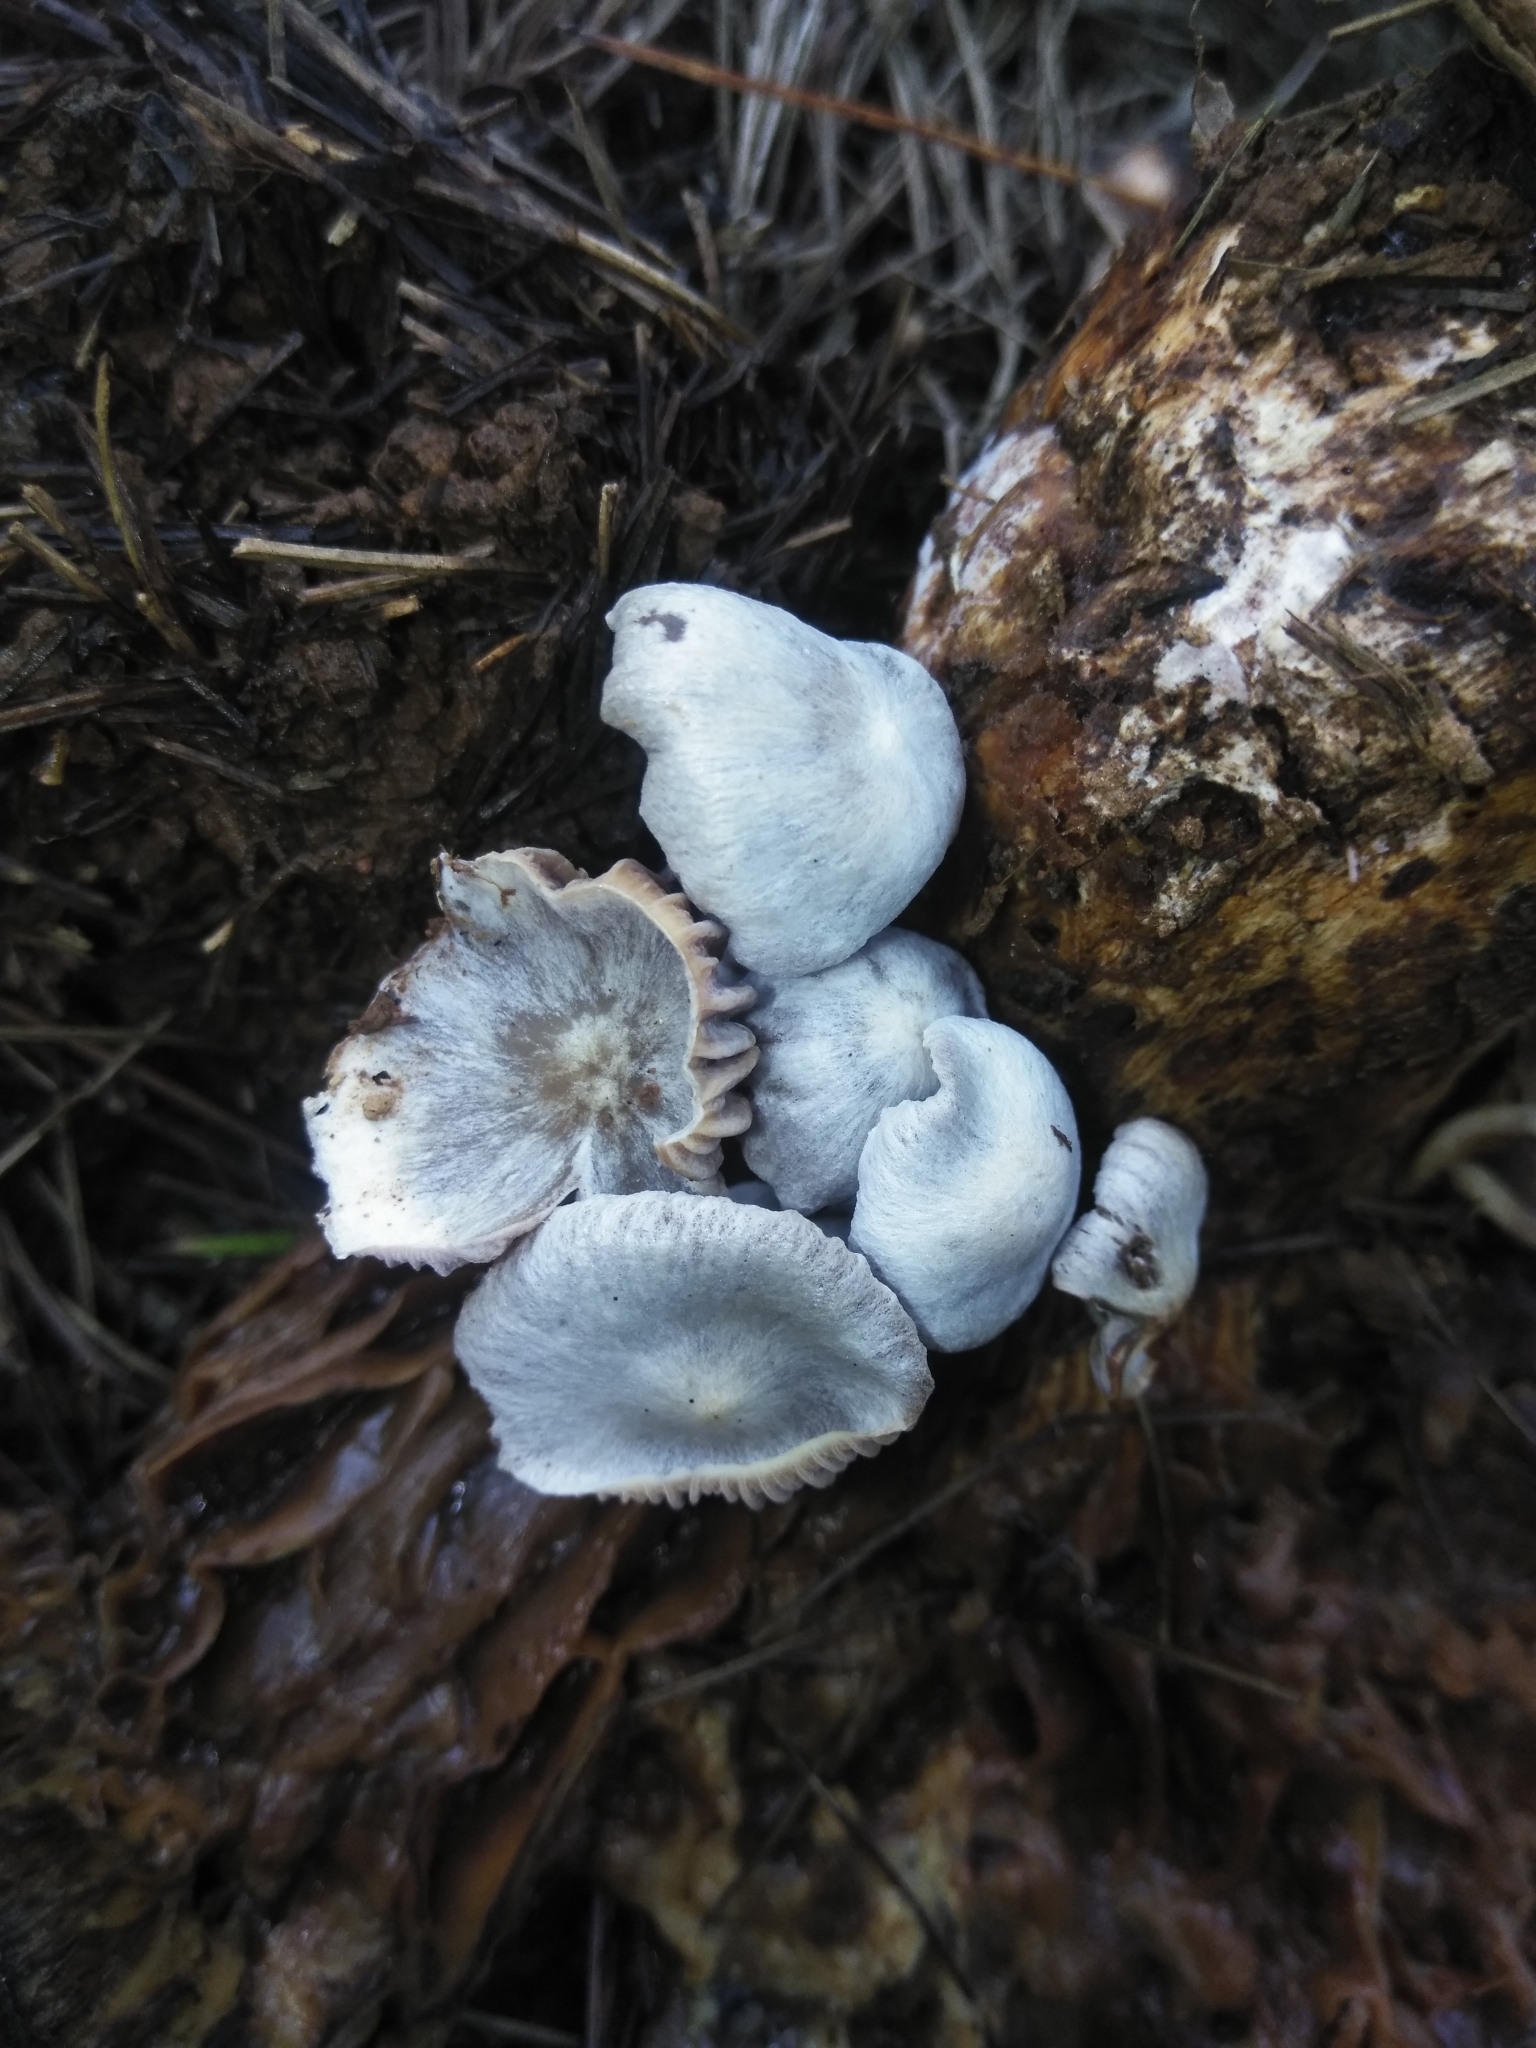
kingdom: Fungi
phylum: Basidiomycota
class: Agaricomycetes
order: Agaricales
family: Lyophyllaceae
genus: Asterophora
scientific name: Asterophora parasitica
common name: Silky piggyback
